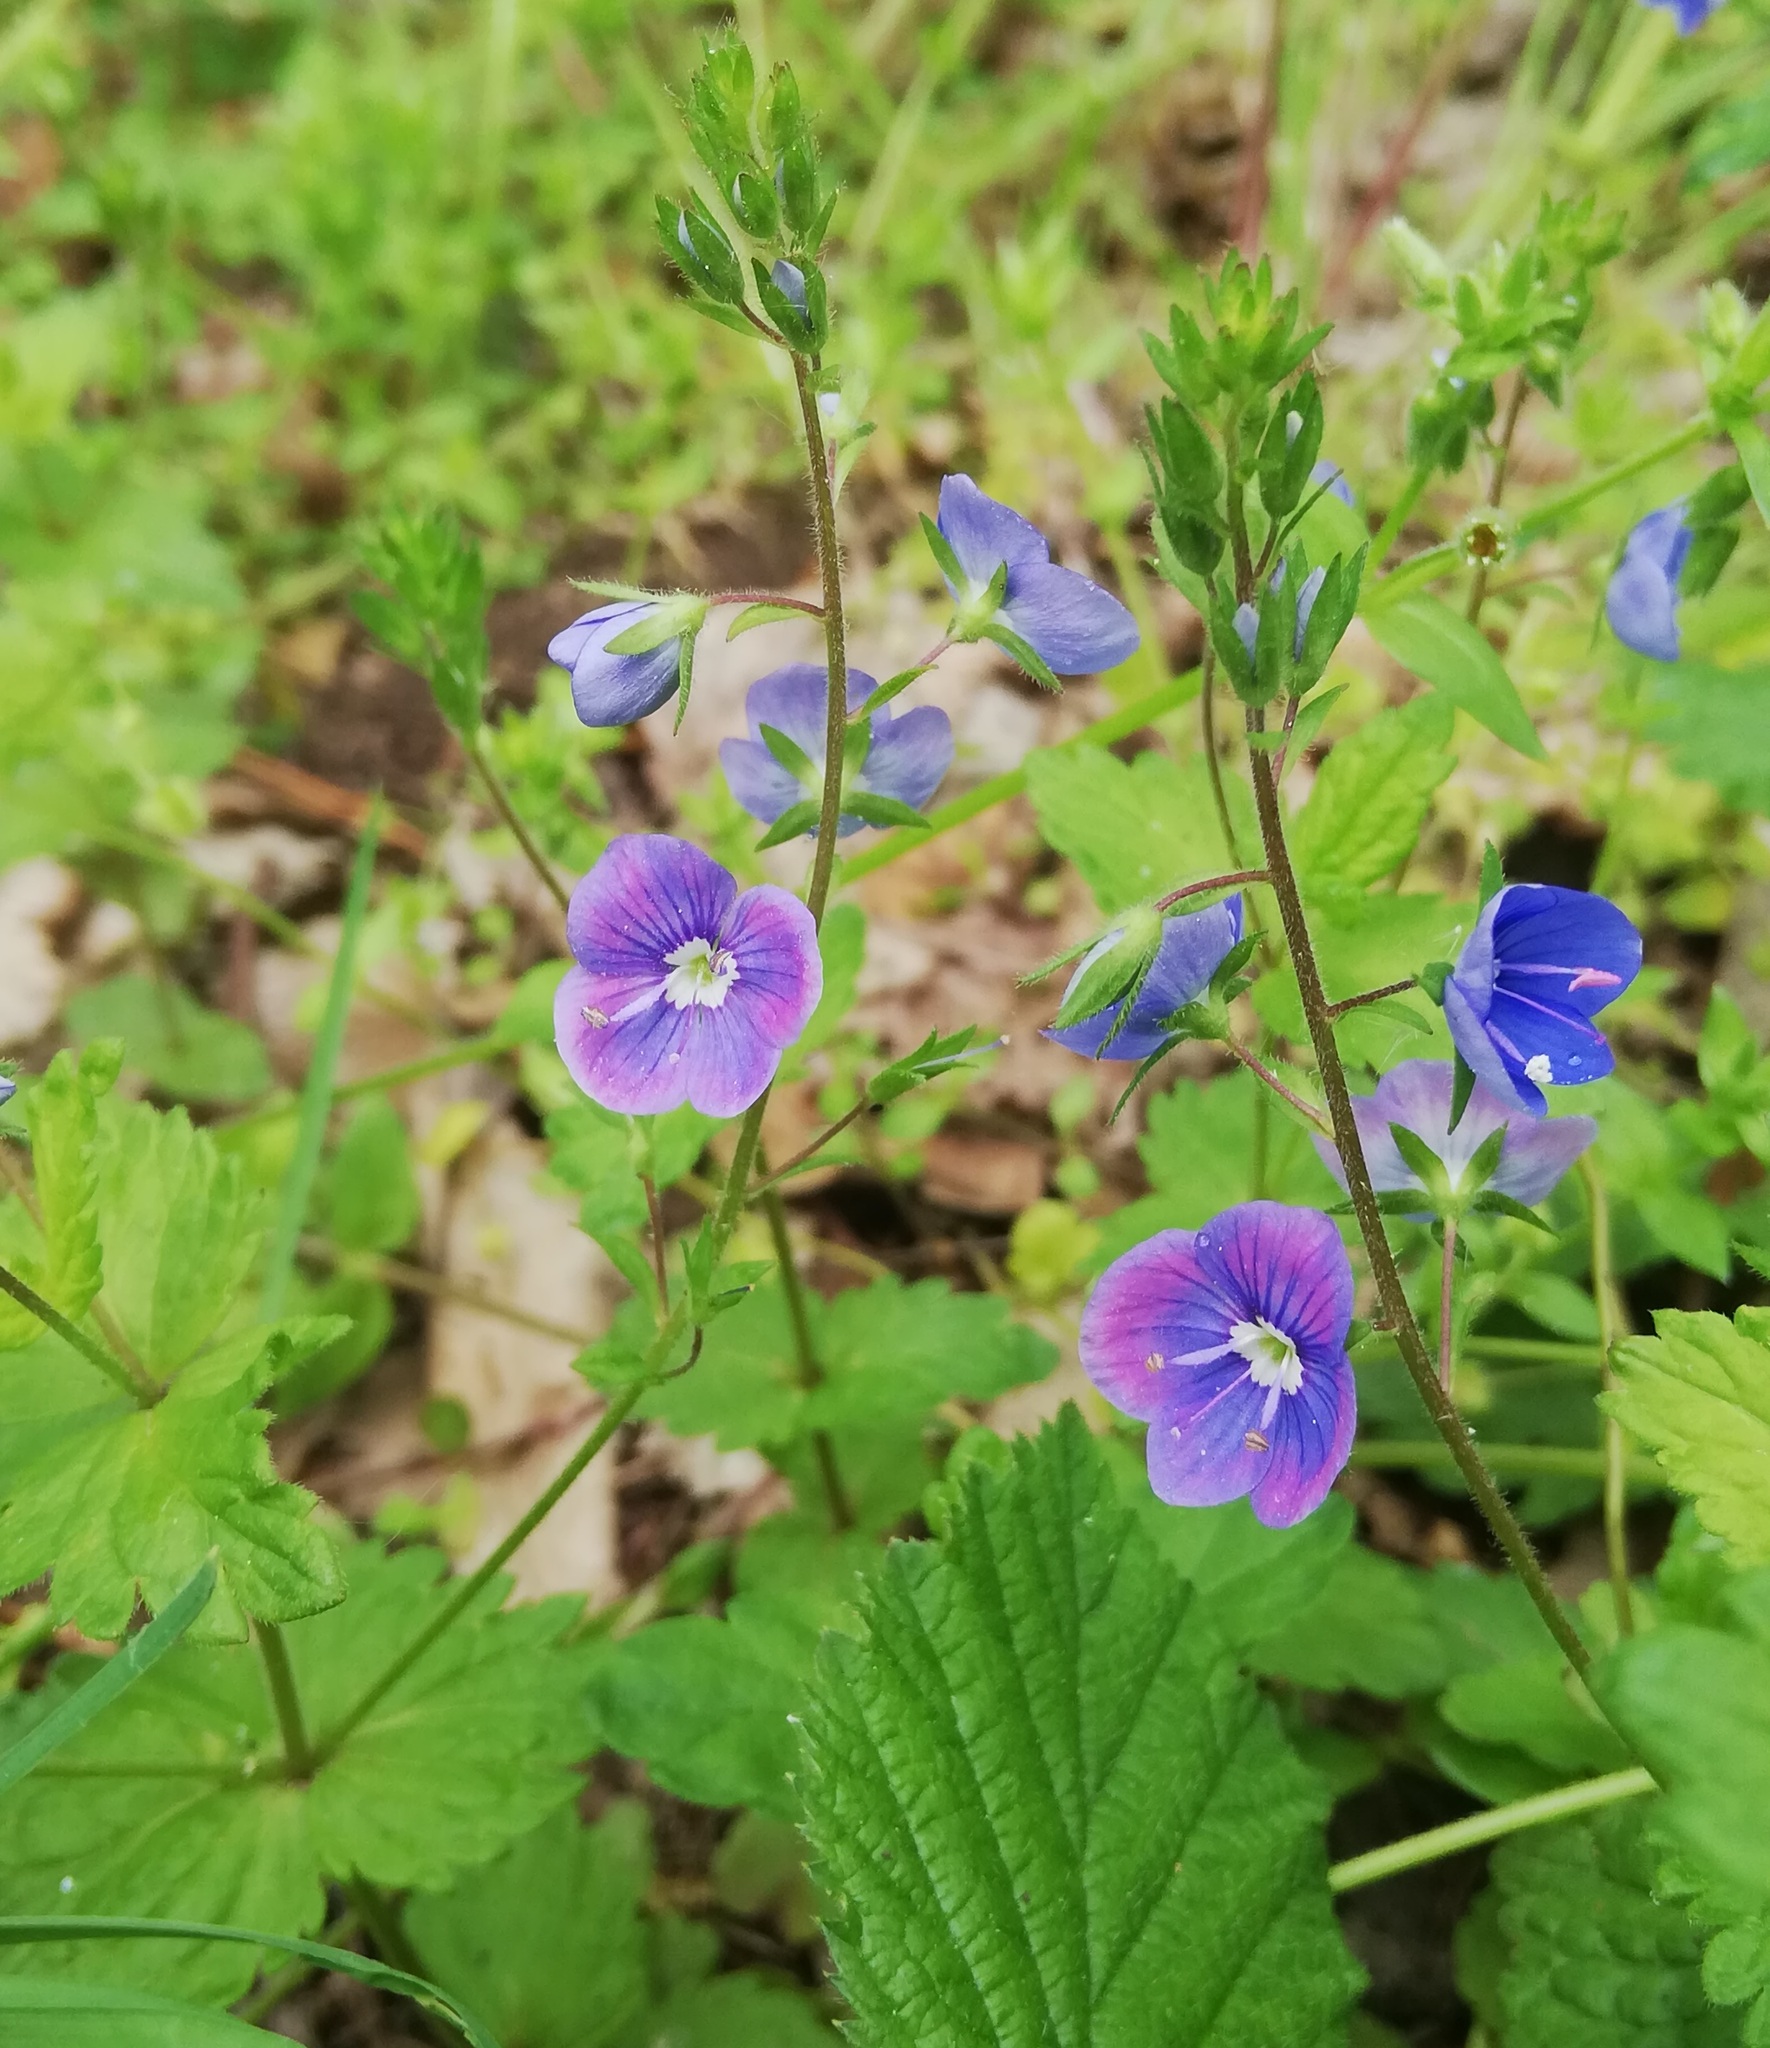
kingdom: Plantae
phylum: Tracheophyta
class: Magnoliopsida
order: Lamiales
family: Plantaginaceae
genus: Veronica
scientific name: Veronica chamaedrys
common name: Germander speedwell
